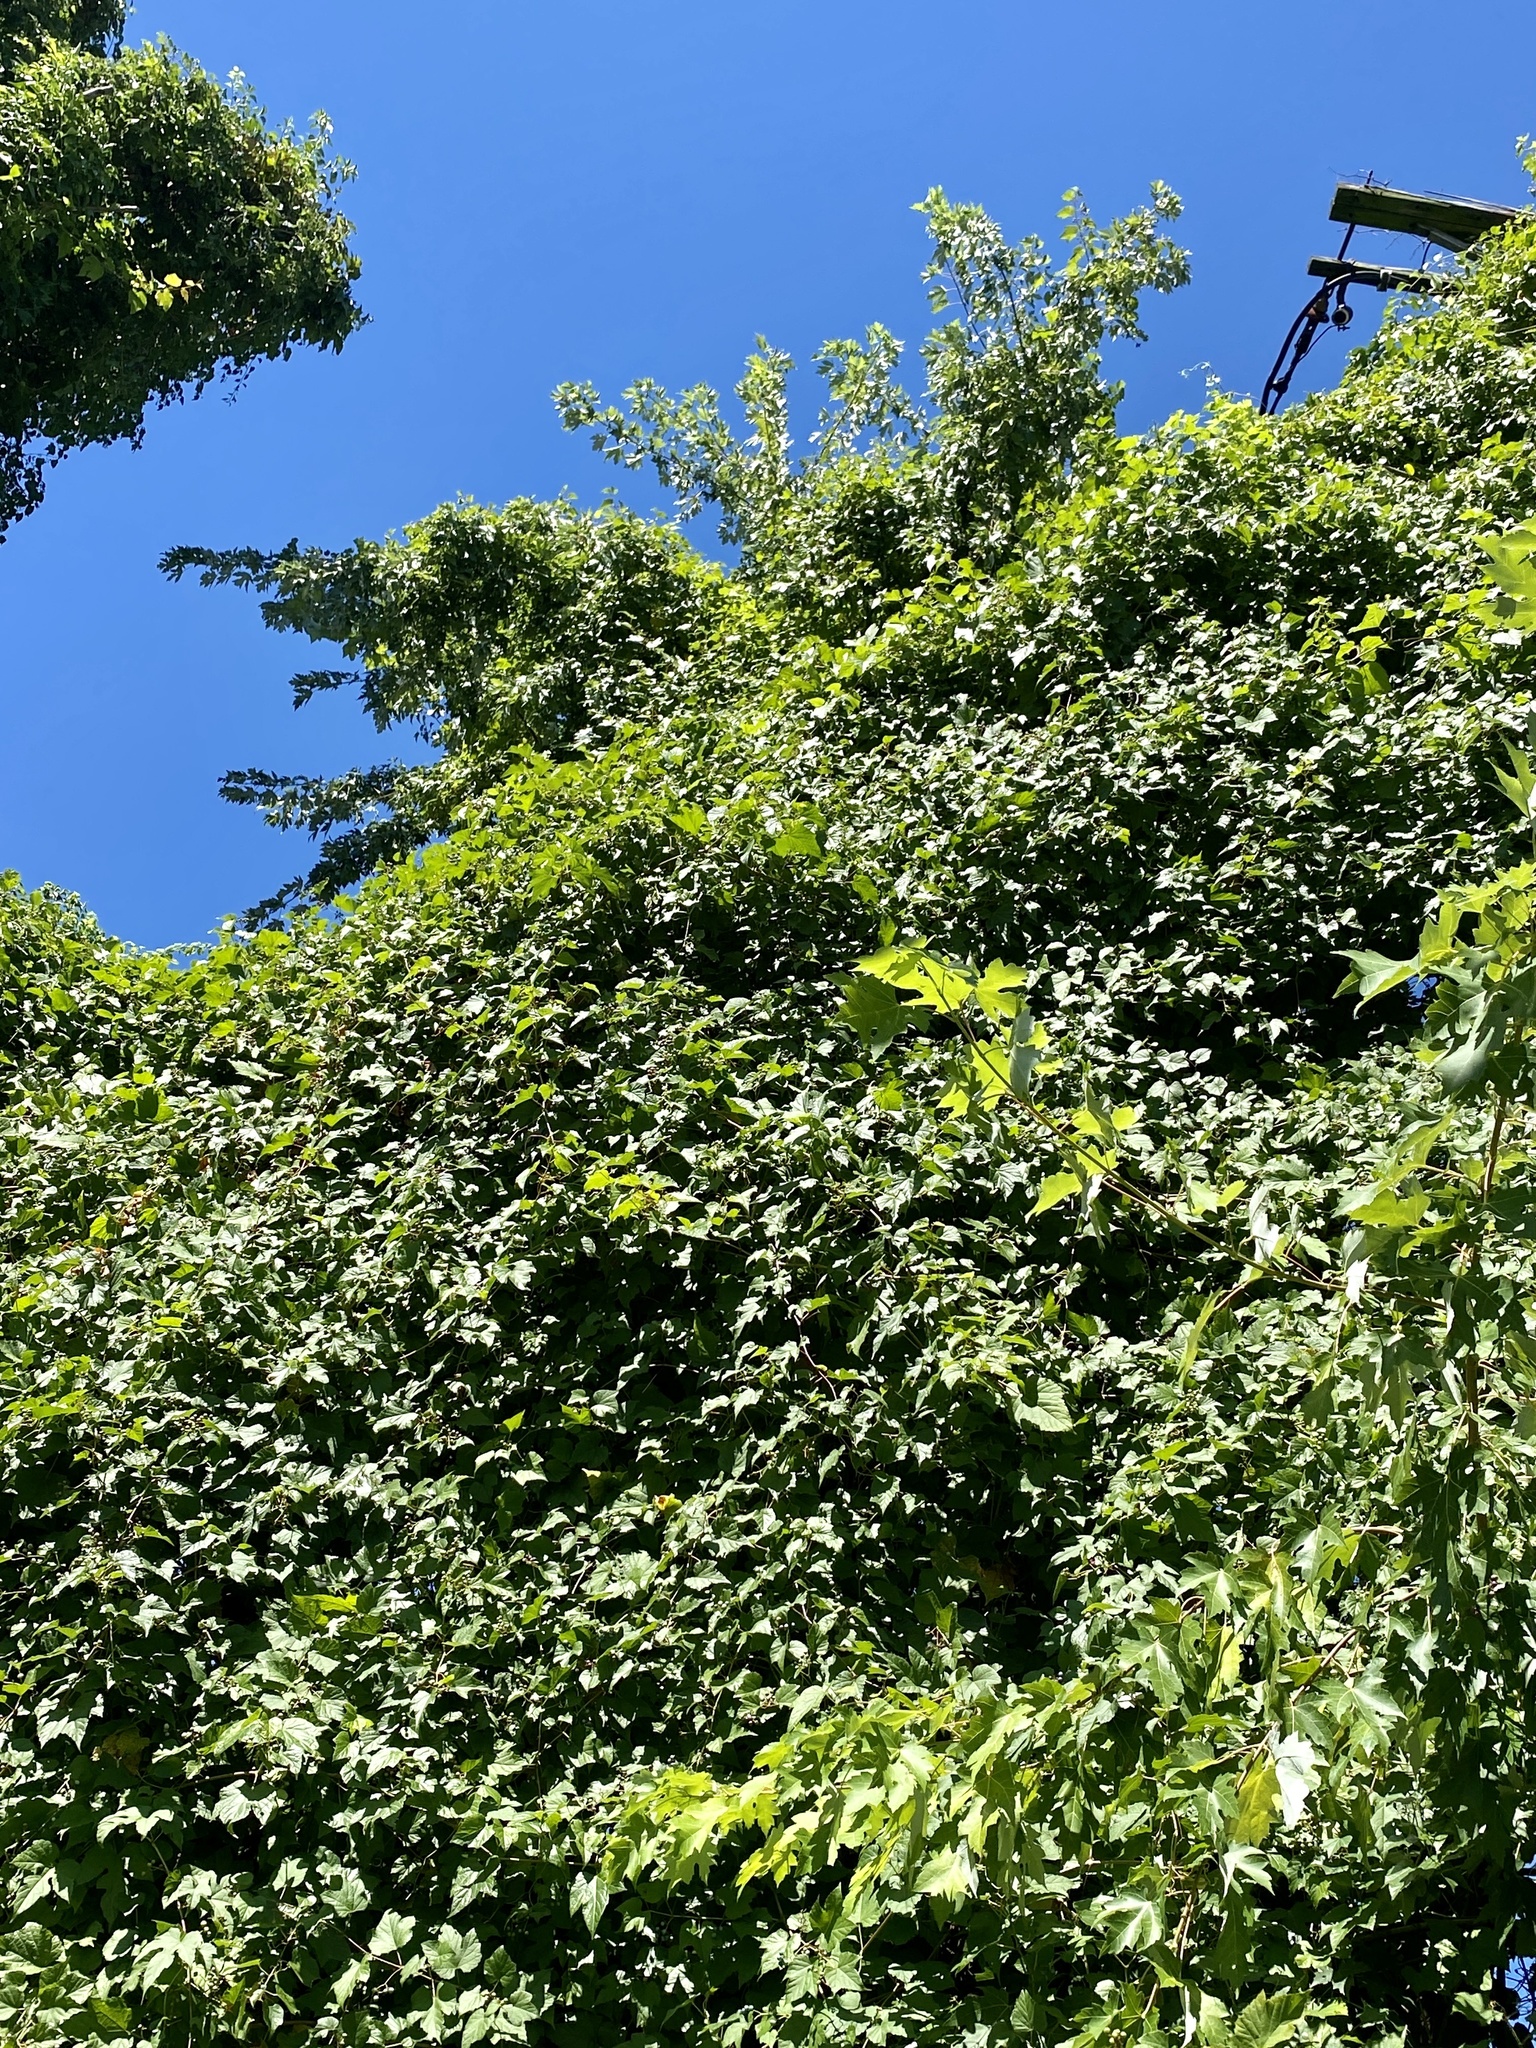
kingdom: Plantae
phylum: Tracheophyta
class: Magnoliopsida
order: Sapindales
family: Sapindaceae
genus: Acer
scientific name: Acer saccharinum
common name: Silver maple
